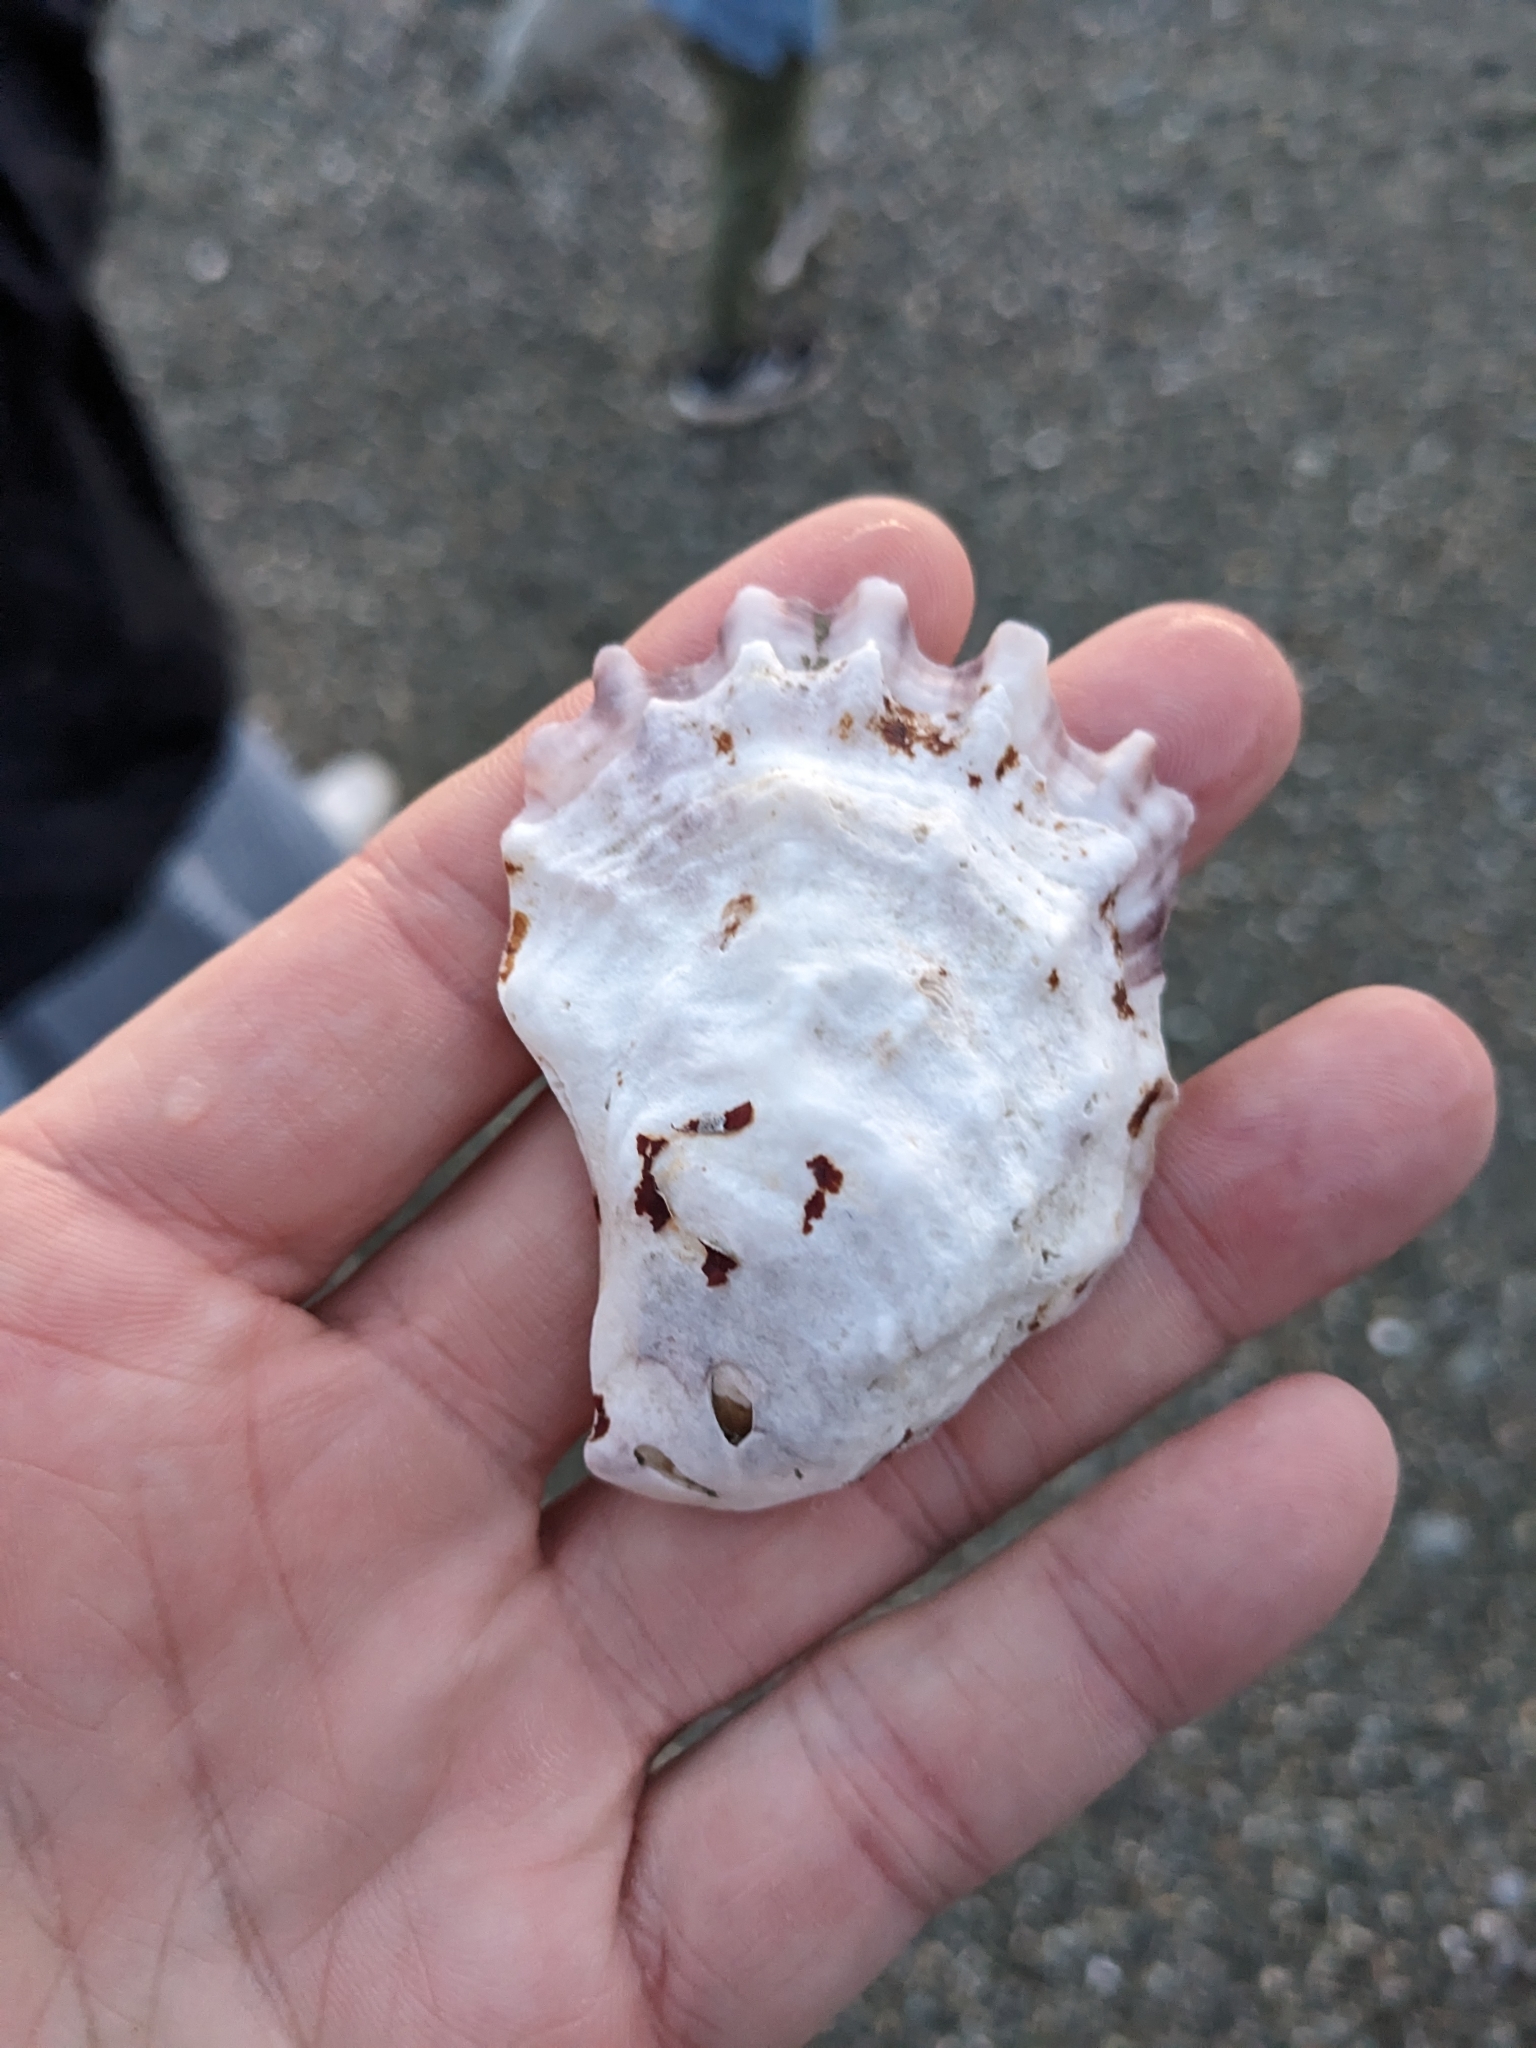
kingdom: Animalia
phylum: Mollusca
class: Bivalvia
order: Ostreida
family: Ostreidae
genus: Crassostrea
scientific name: Crassostrea virginica
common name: American oyster
